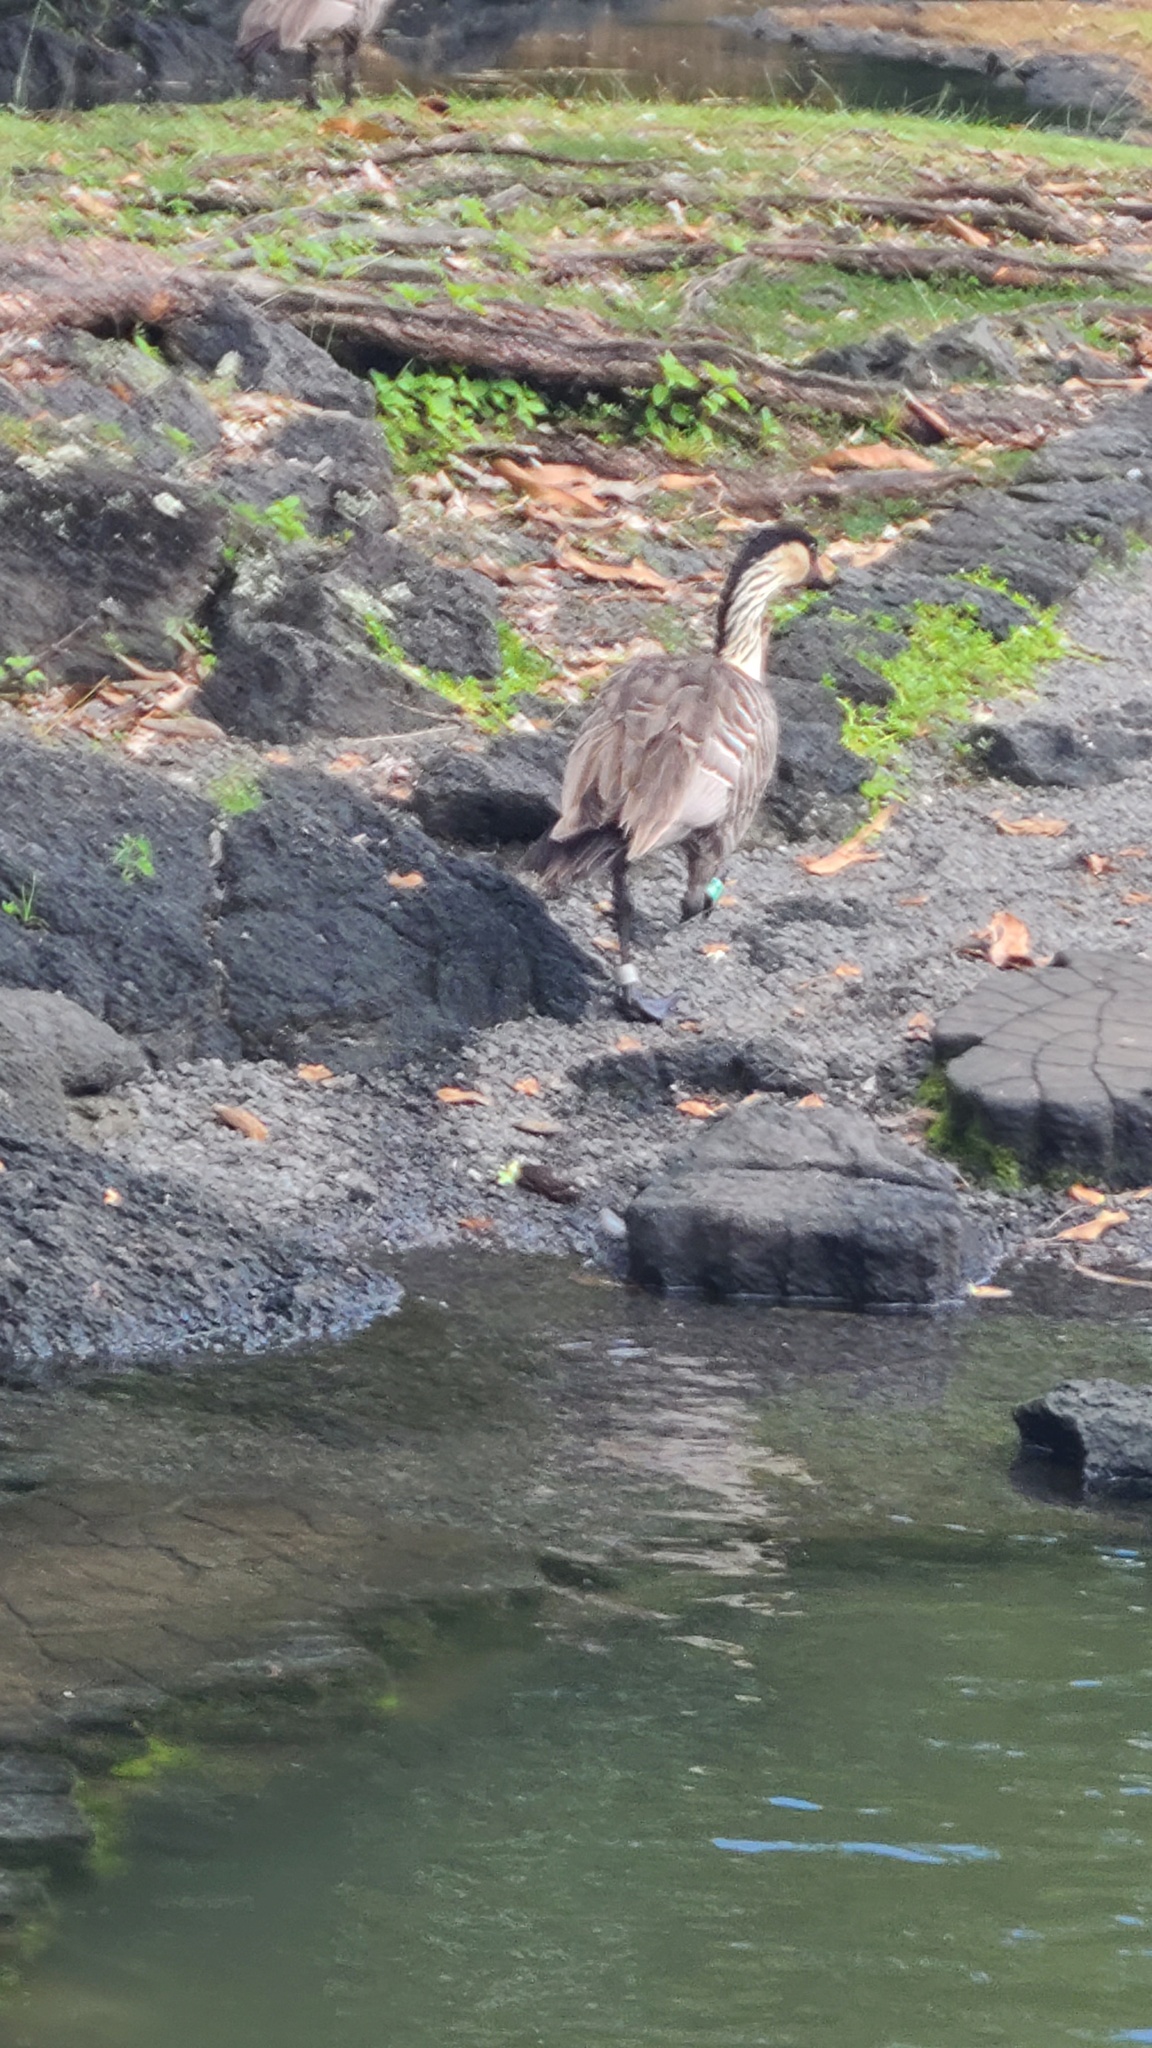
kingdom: Animalia
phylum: Chordata
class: Aves
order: Anseriformes
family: Anatidae
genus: Branta
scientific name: Branta sandvicensis
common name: Nene
